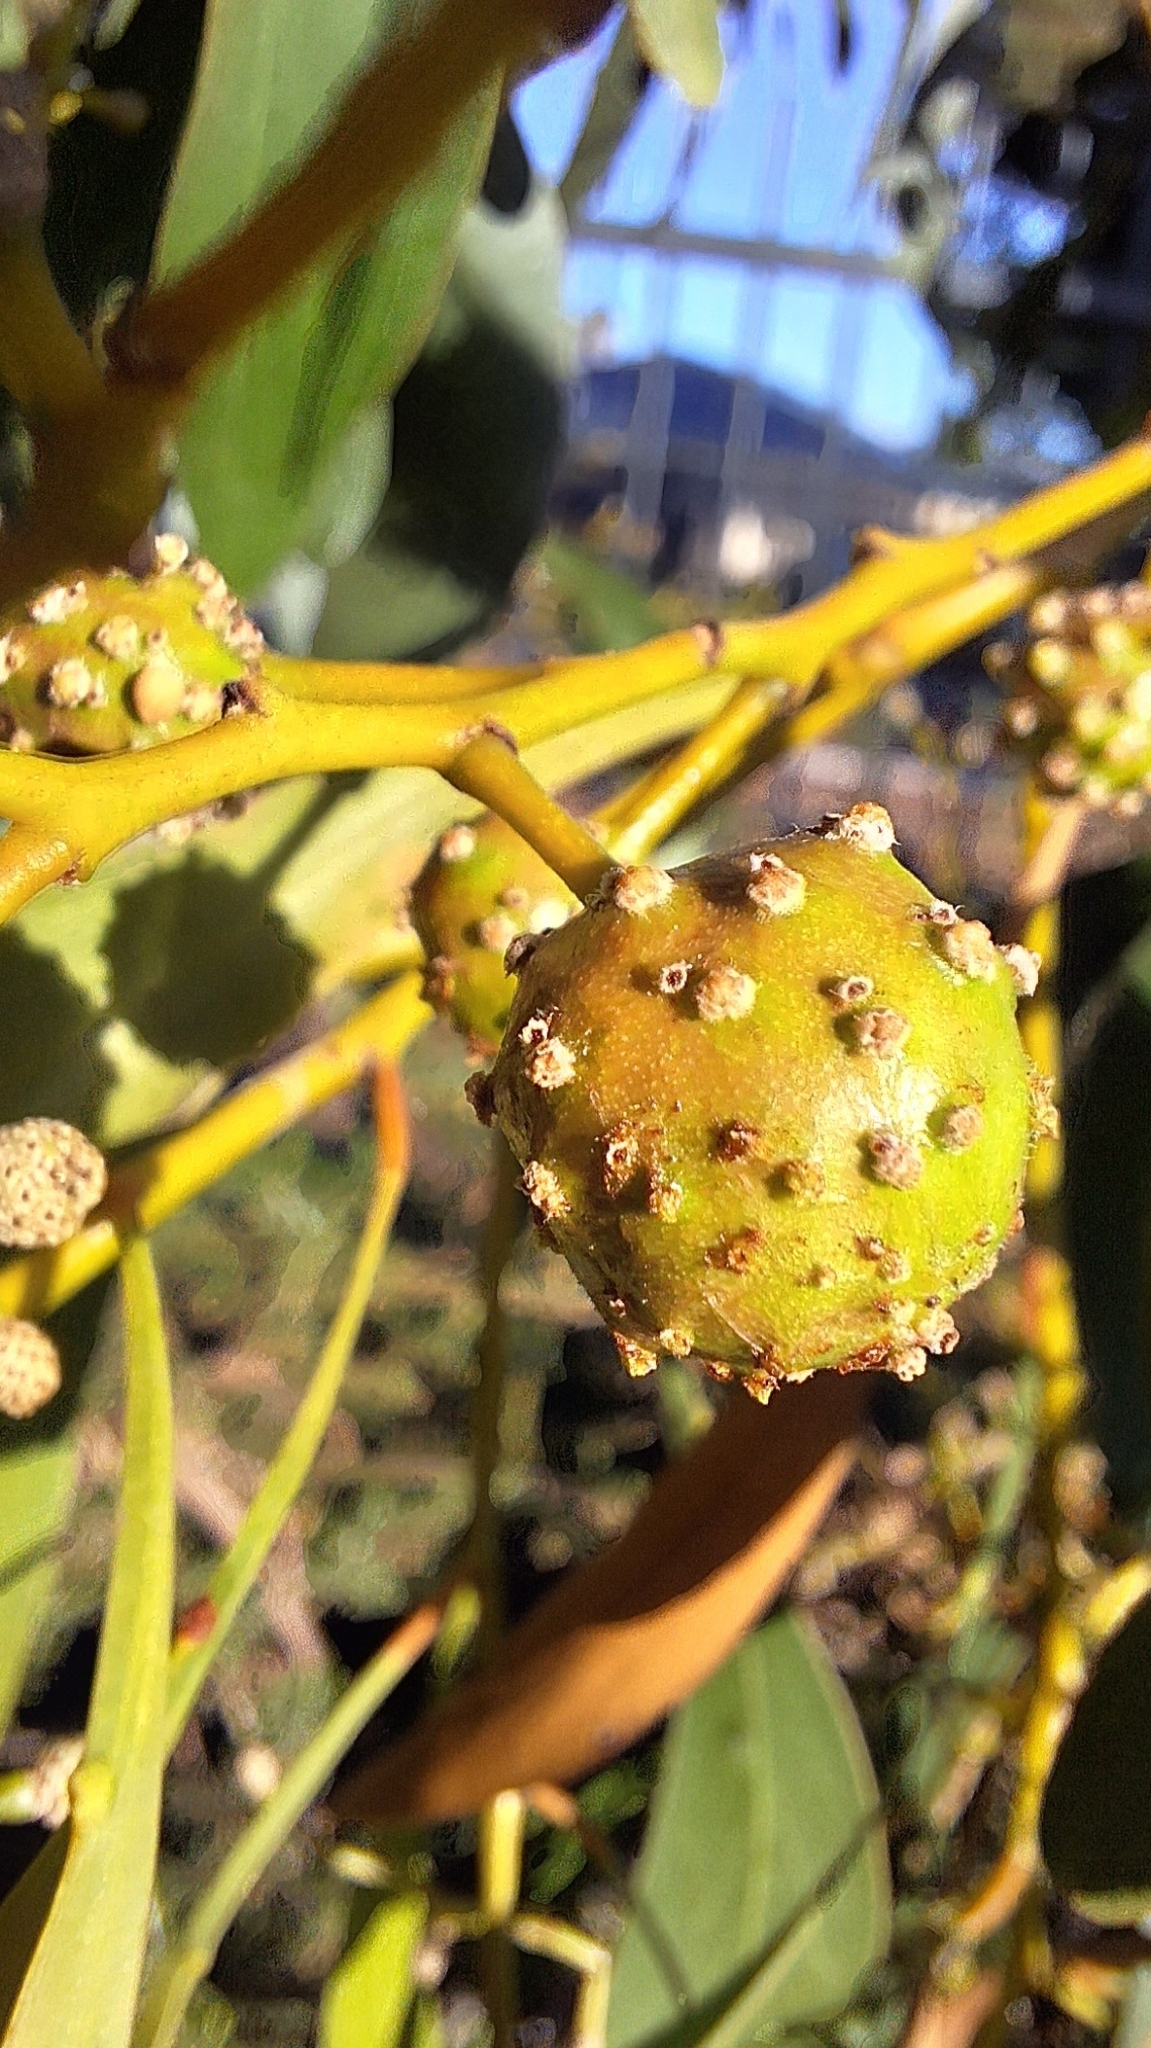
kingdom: Animalia
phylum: Arthropoda
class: Insecta
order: Hymenoptera
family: Pteromalidae
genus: Trichilogaster
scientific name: Trichilogaster signiventris
